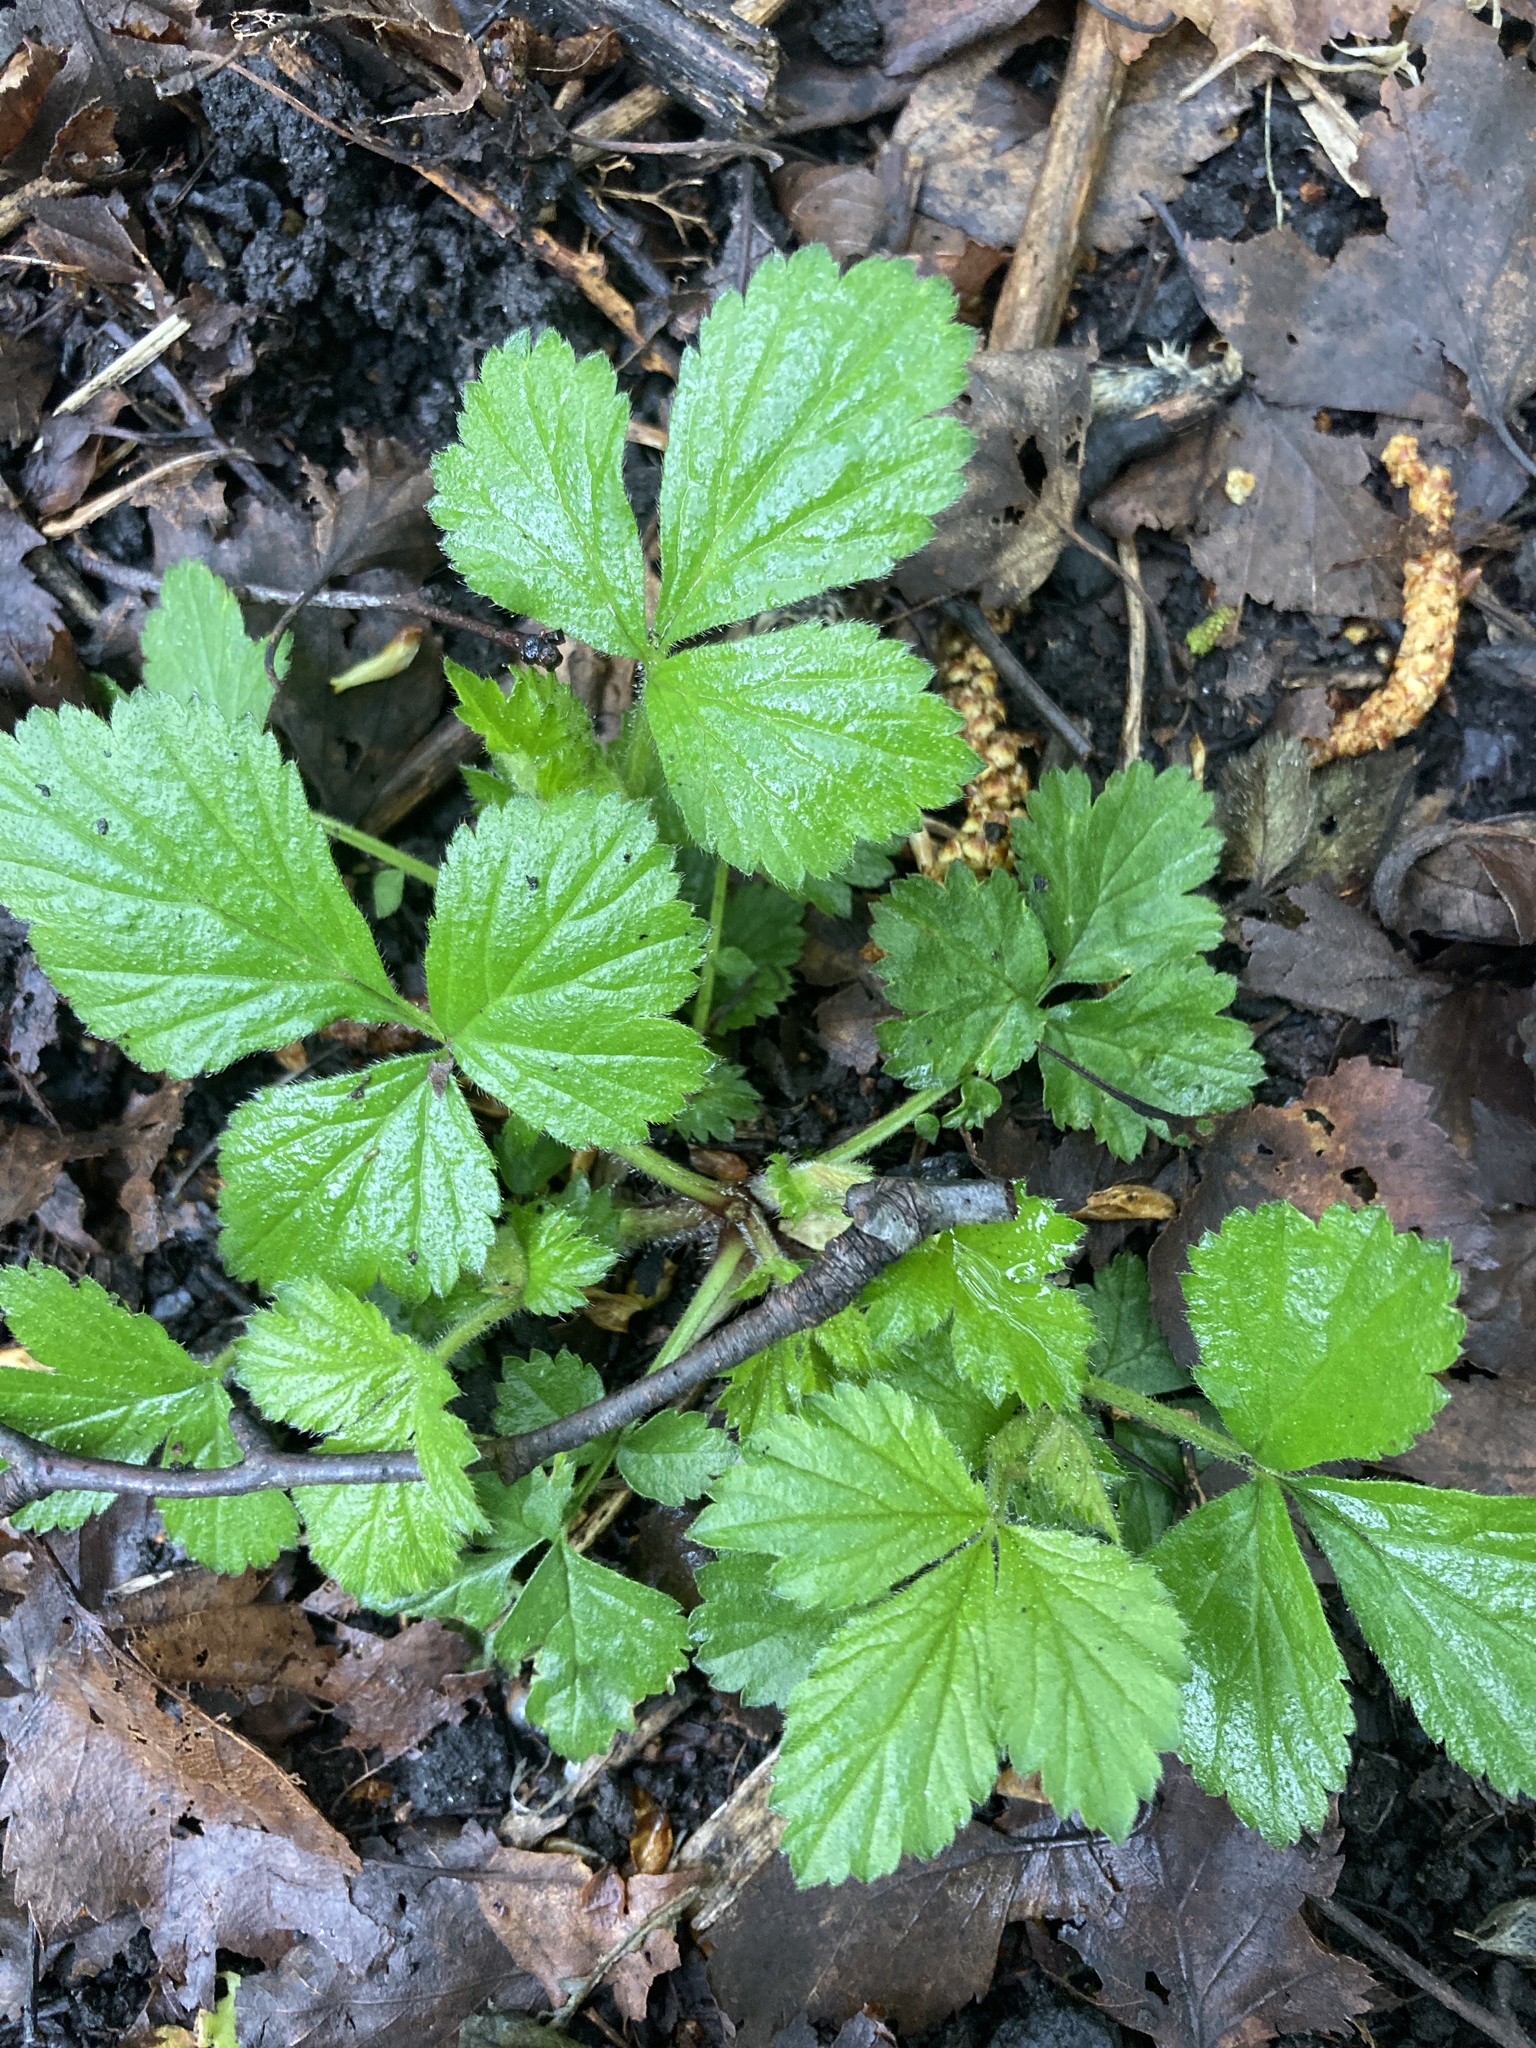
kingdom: Plantae
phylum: Tracheophyta
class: Magnoliopsida
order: Rosales
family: Rosaceae
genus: Geum
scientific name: Geum urbanum
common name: Wood avens
